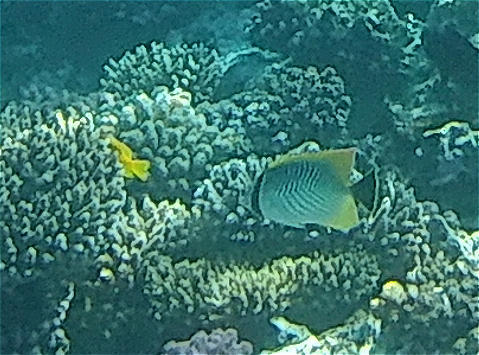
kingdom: Animalia
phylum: Chordata
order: Perciformes
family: Chaetodontidae
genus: Chaetodon
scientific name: Chaetodon trifascialis
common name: Chevroned butterflyfish
